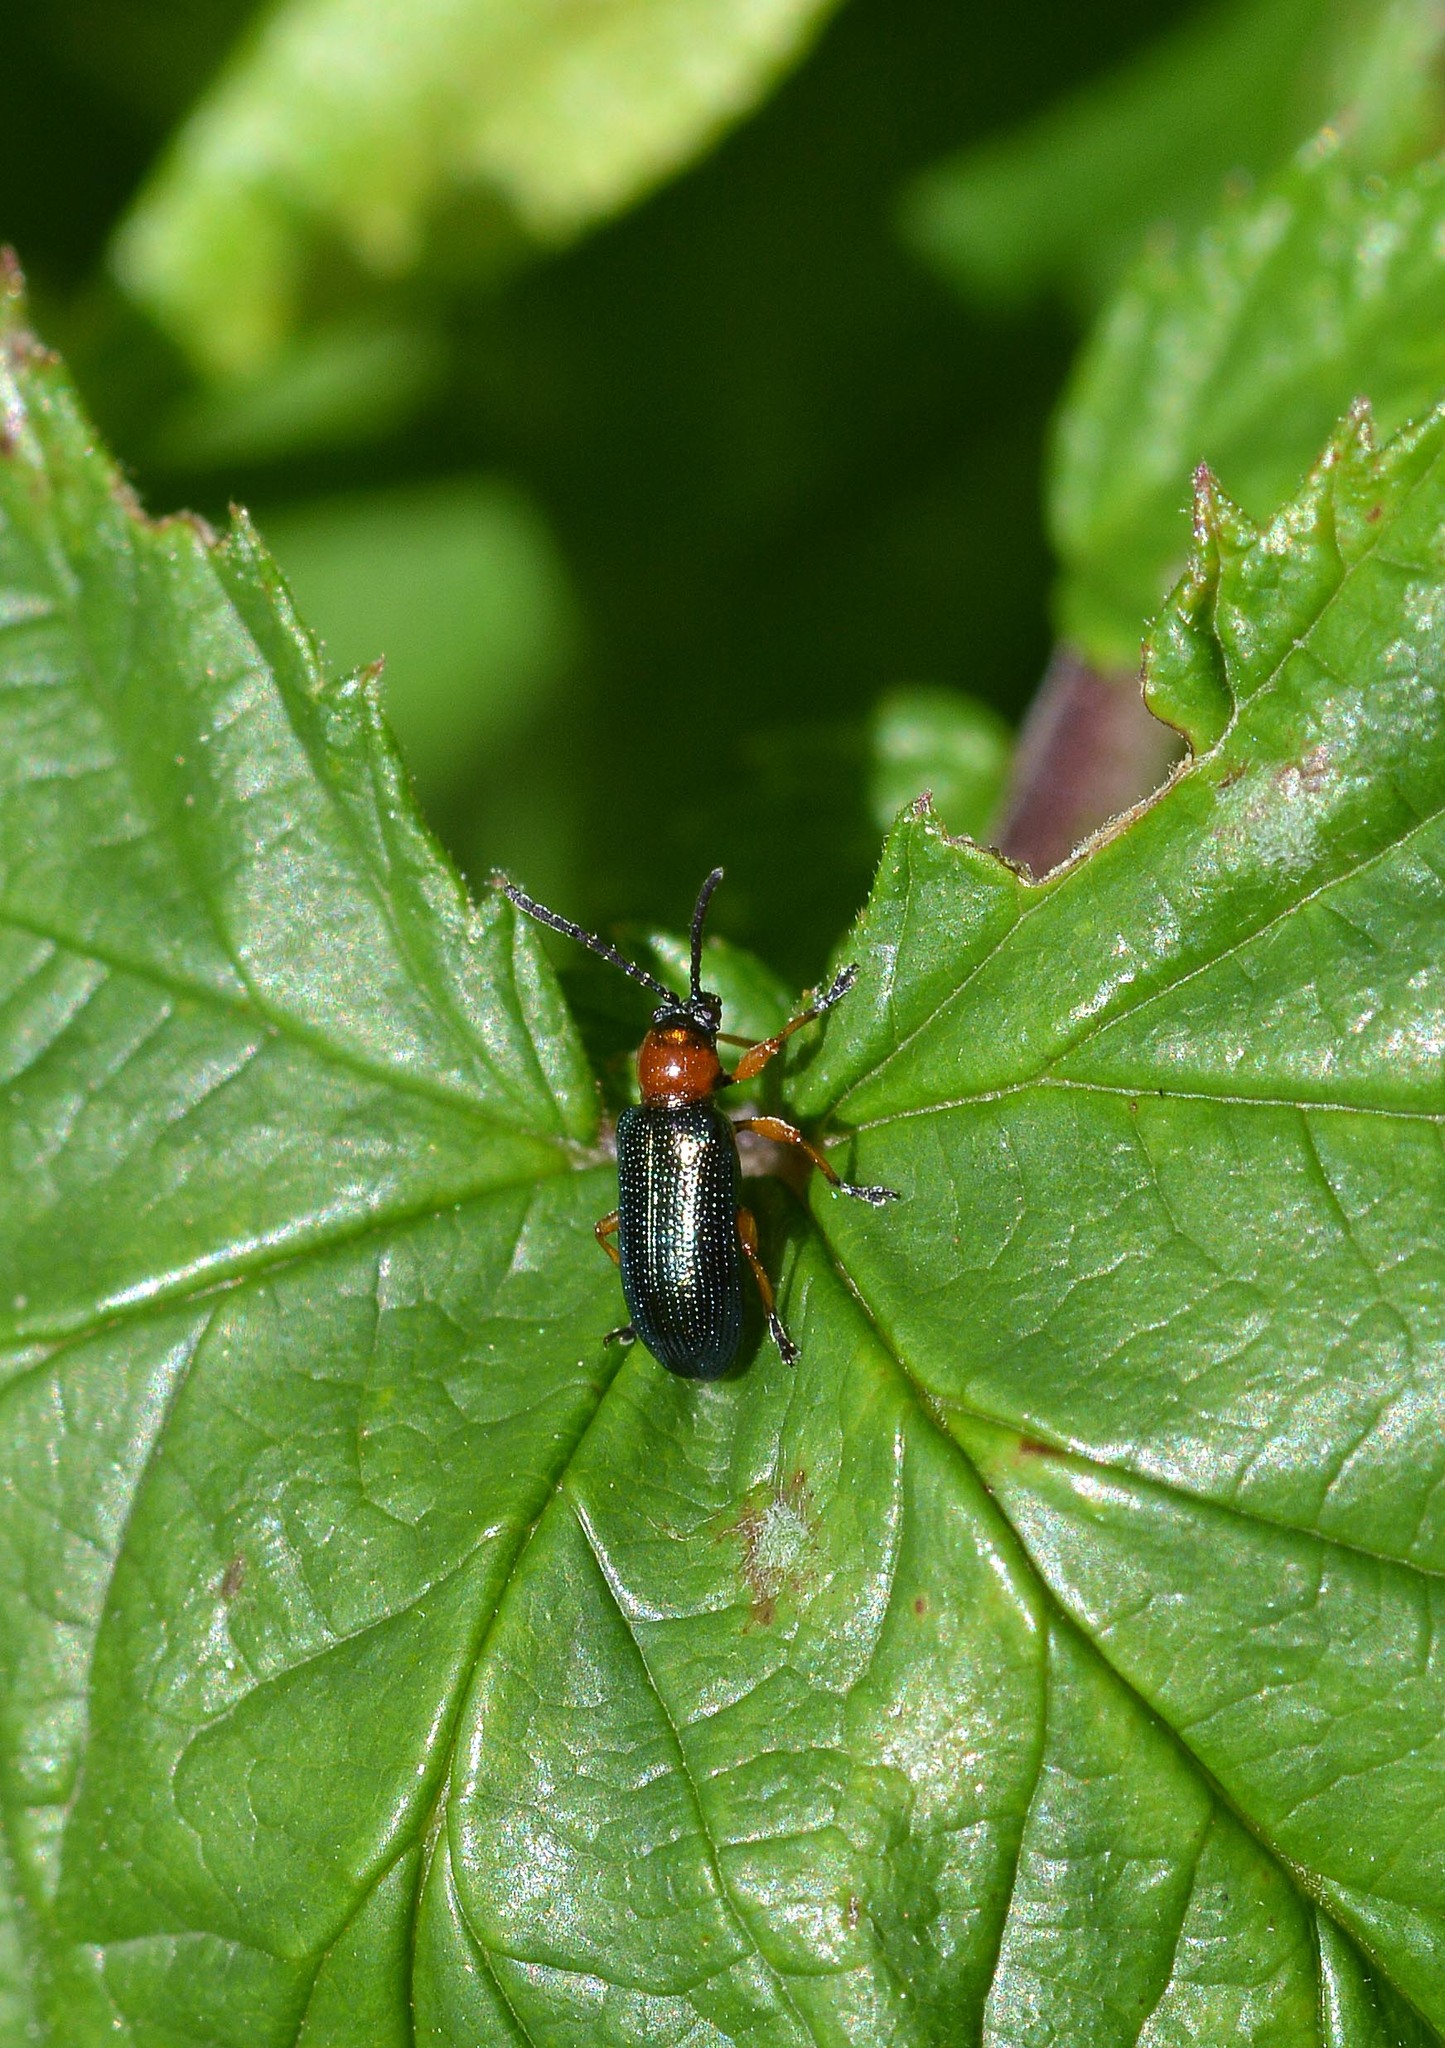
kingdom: Animalia
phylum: Arthropoda
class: Insecta
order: Coleoptera
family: Chrysomelidae
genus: Oulema
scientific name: Oulema
